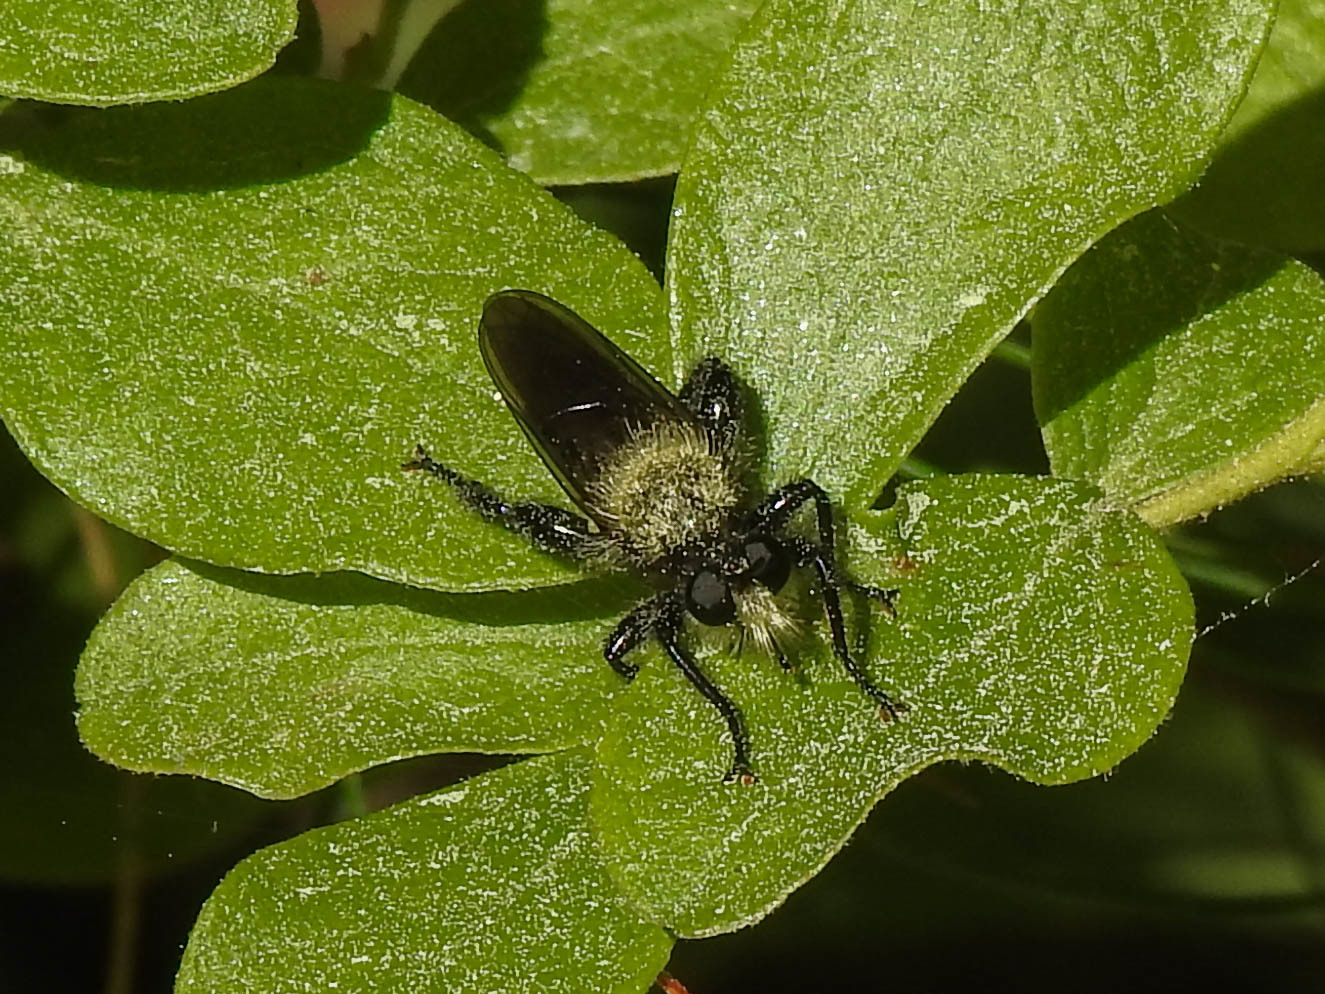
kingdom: Animalia
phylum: Arthropoda
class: Insecta
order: Diptera
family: Asilidae
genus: Laphria
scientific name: Laphria flavicollis
